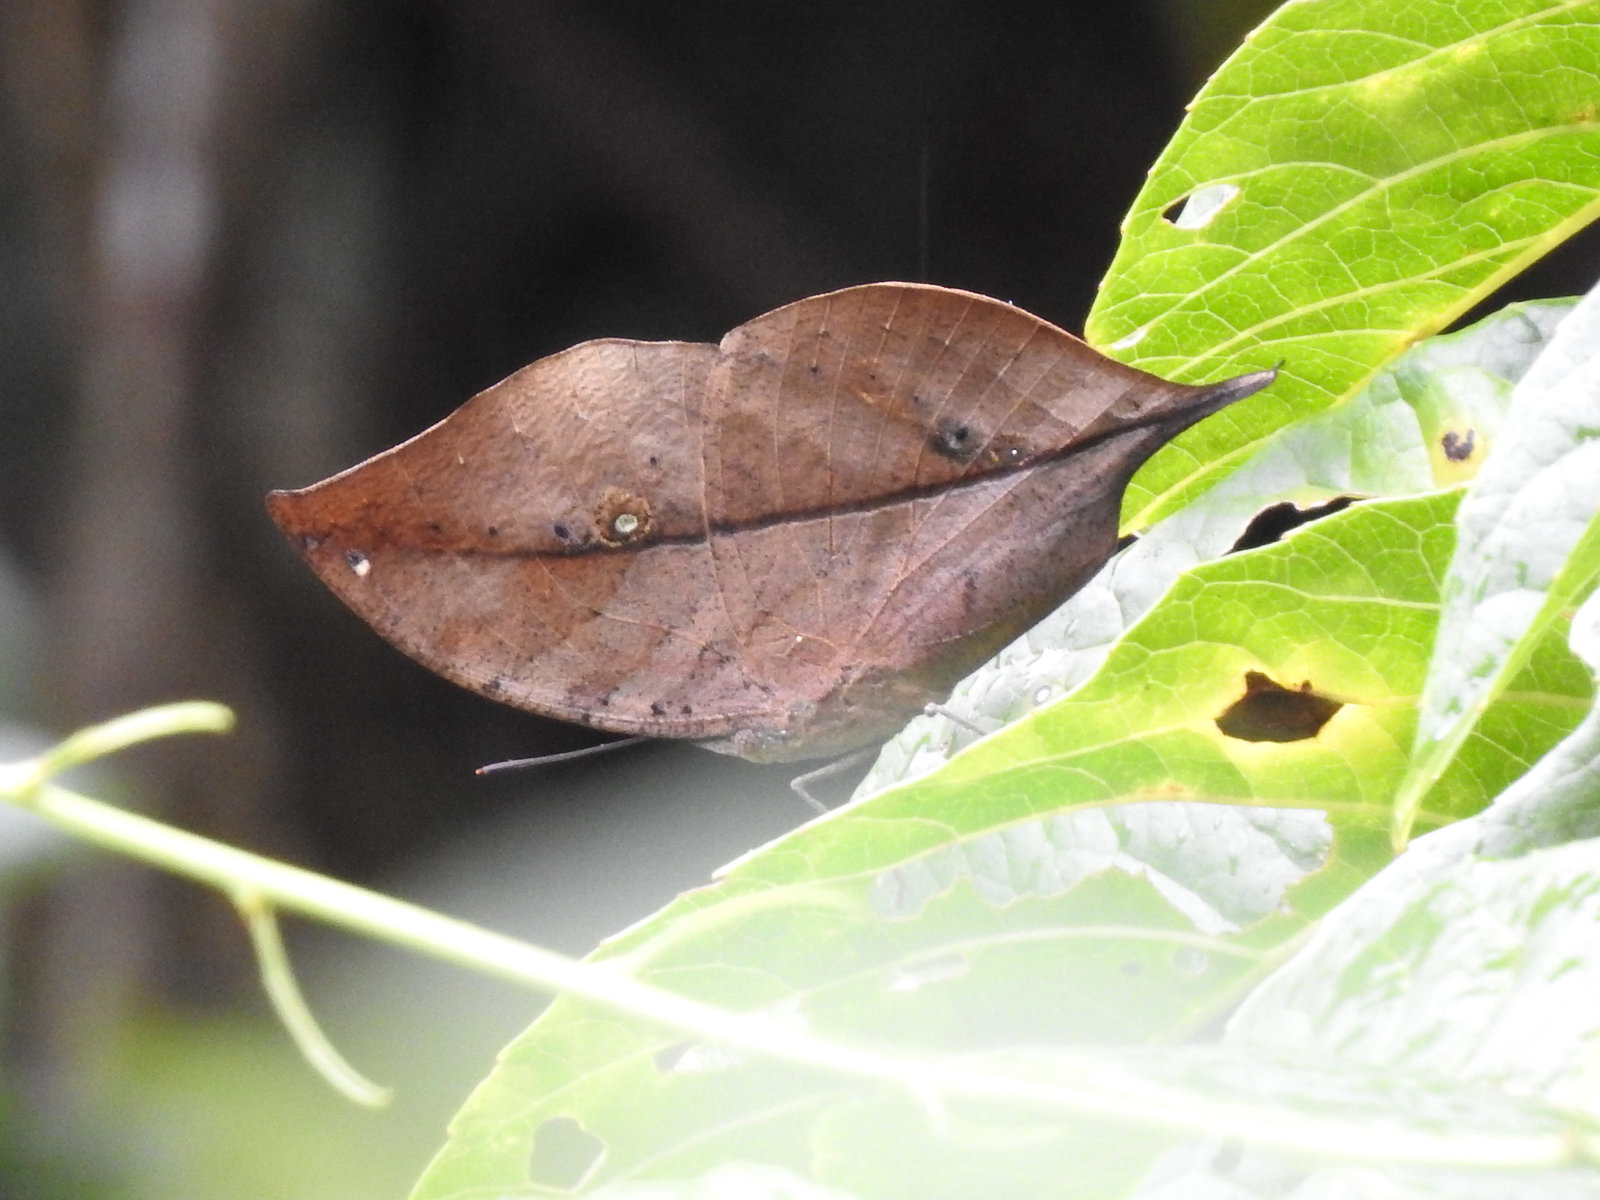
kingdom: Animalia
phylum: Arthropoda
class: Insecta
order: Lepidoptera
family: Nymphalidae
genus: Kallima
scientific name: Kallima inachus
